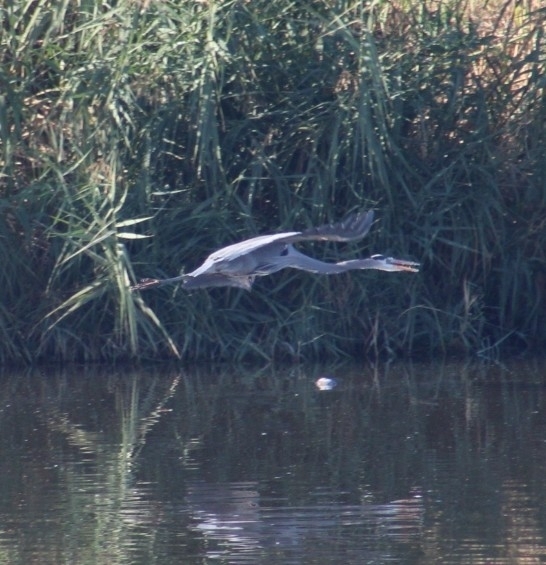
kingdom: Animalia
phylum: Chordata
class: Aves
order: Pelecaniformes
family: Ardeidae
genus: Ardea
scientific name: Ardea herodias
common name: Great blue heron
